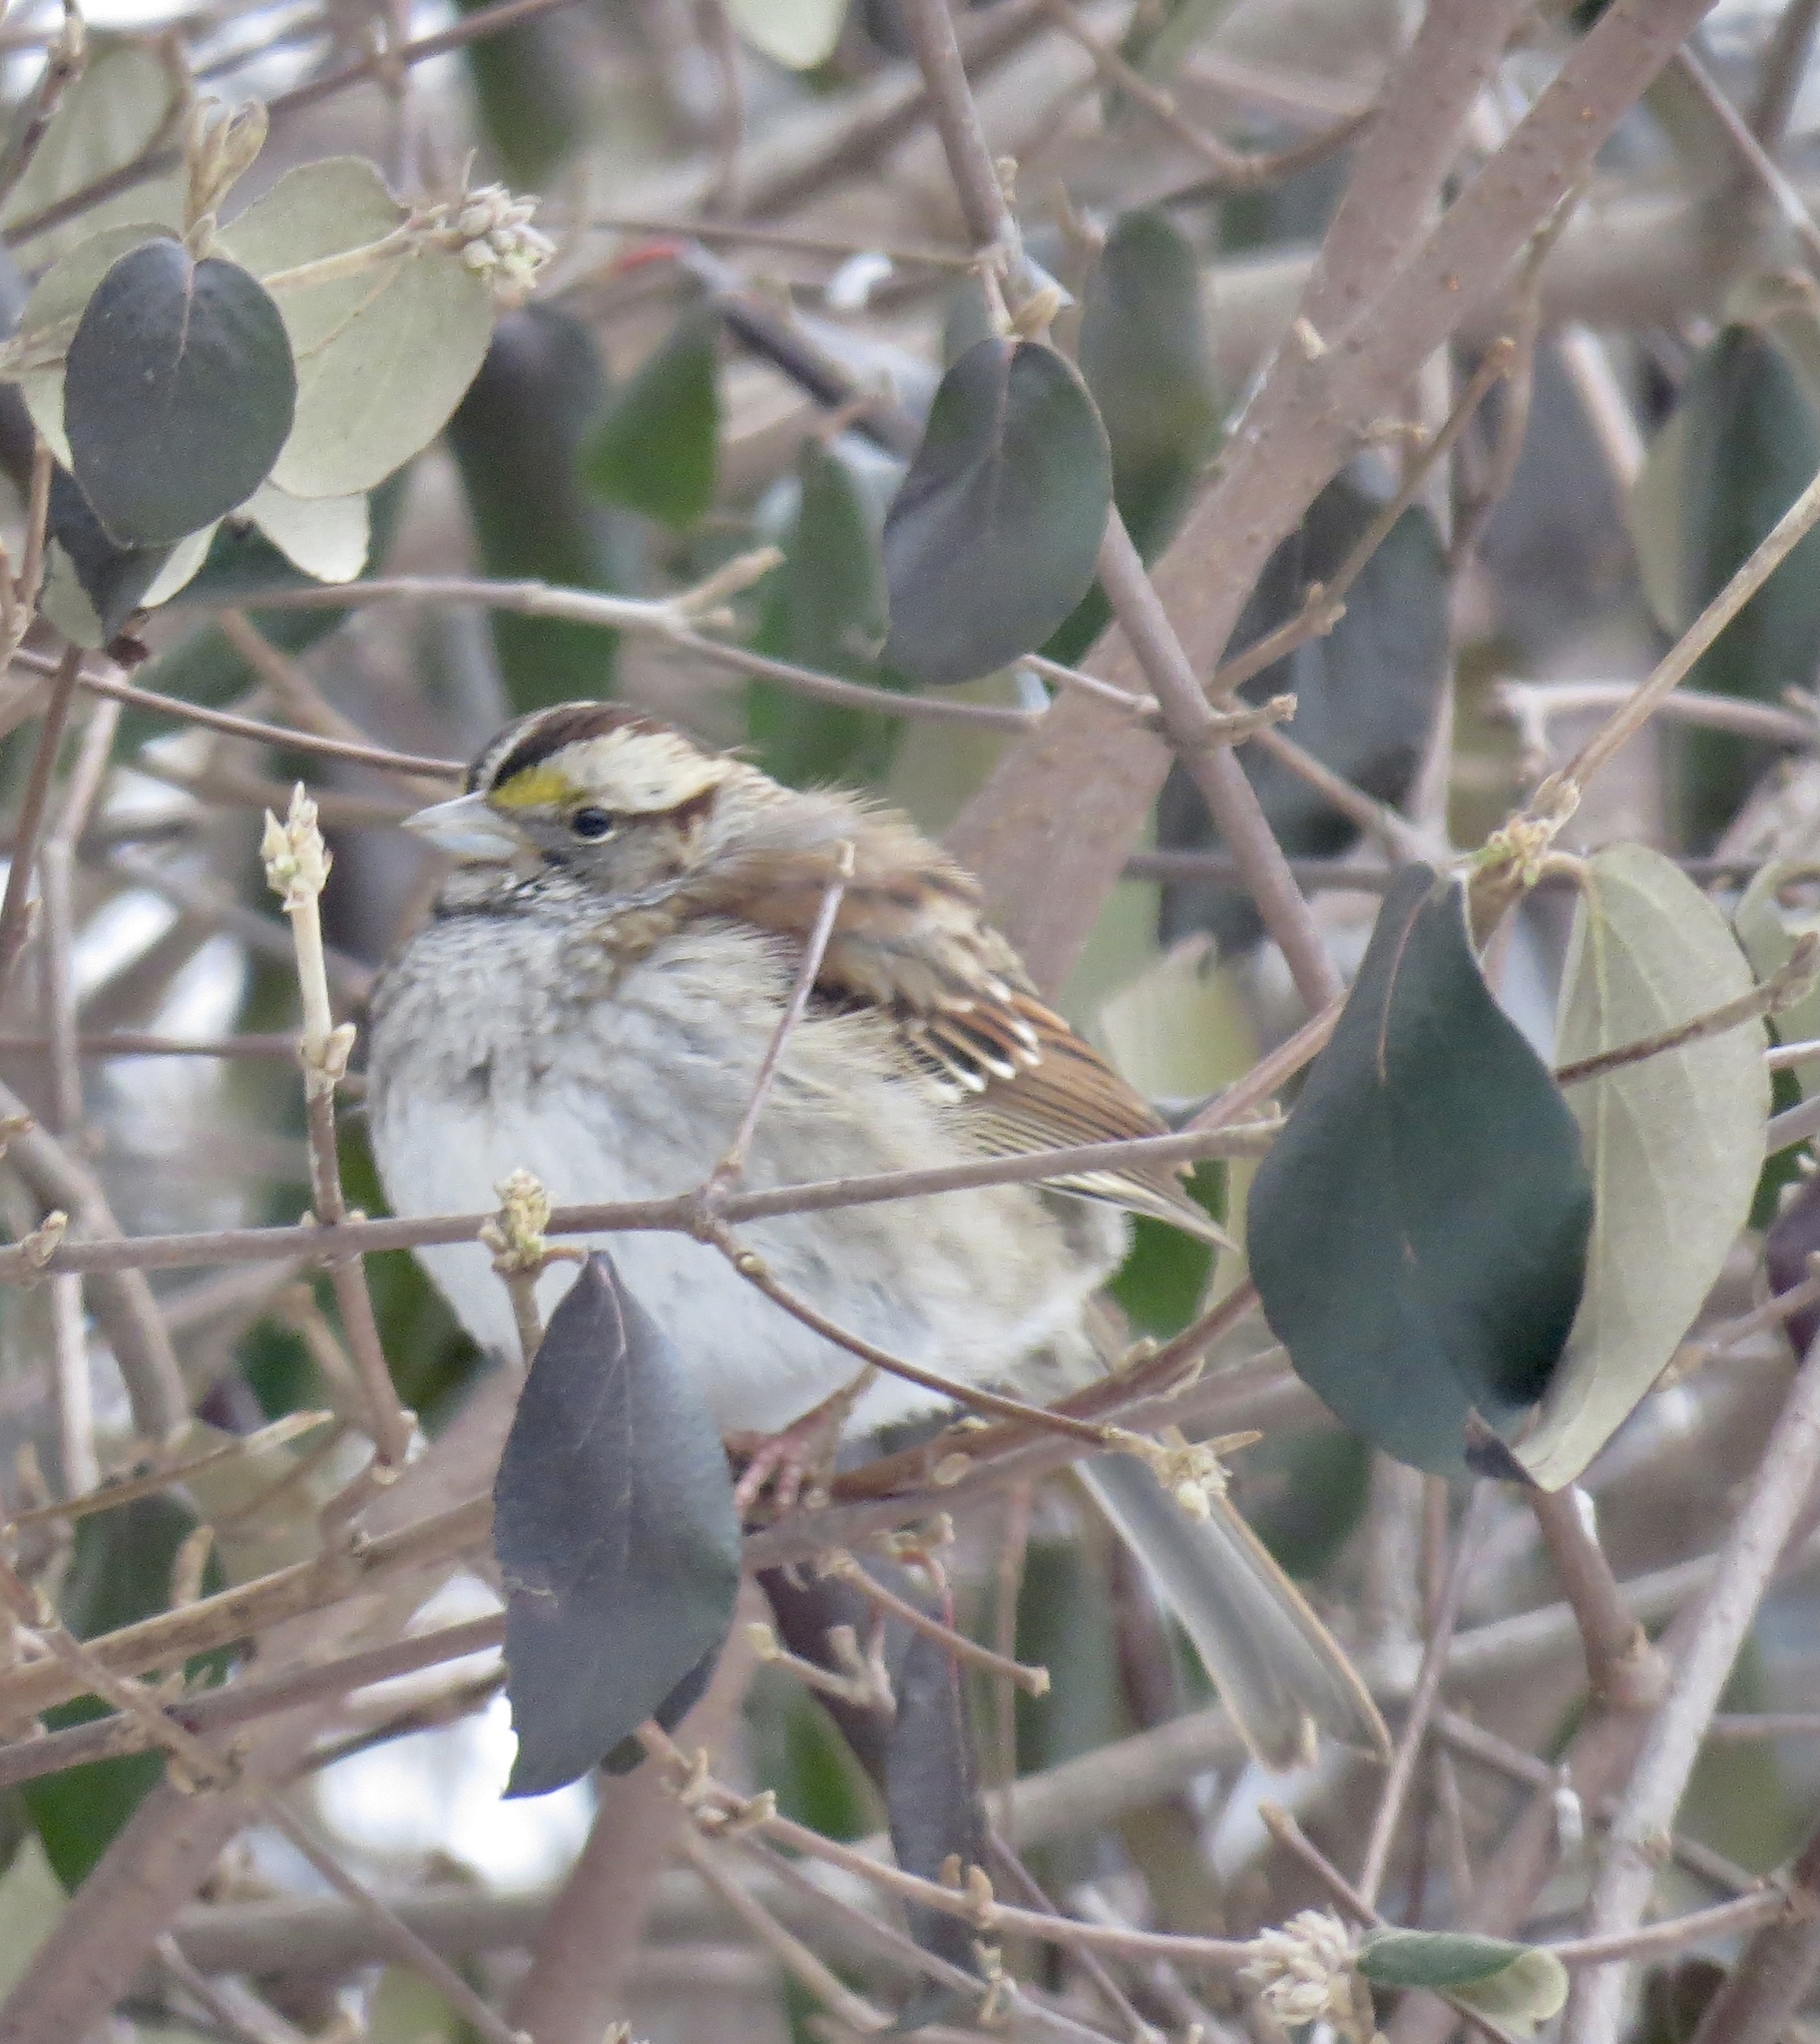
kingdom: Animalia
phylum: Chordata
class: Aves
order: Passeriformes
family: Passerellidae
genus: Zonotrichia
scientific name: Zonotrichia albicollis
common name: White-throated sparrow
